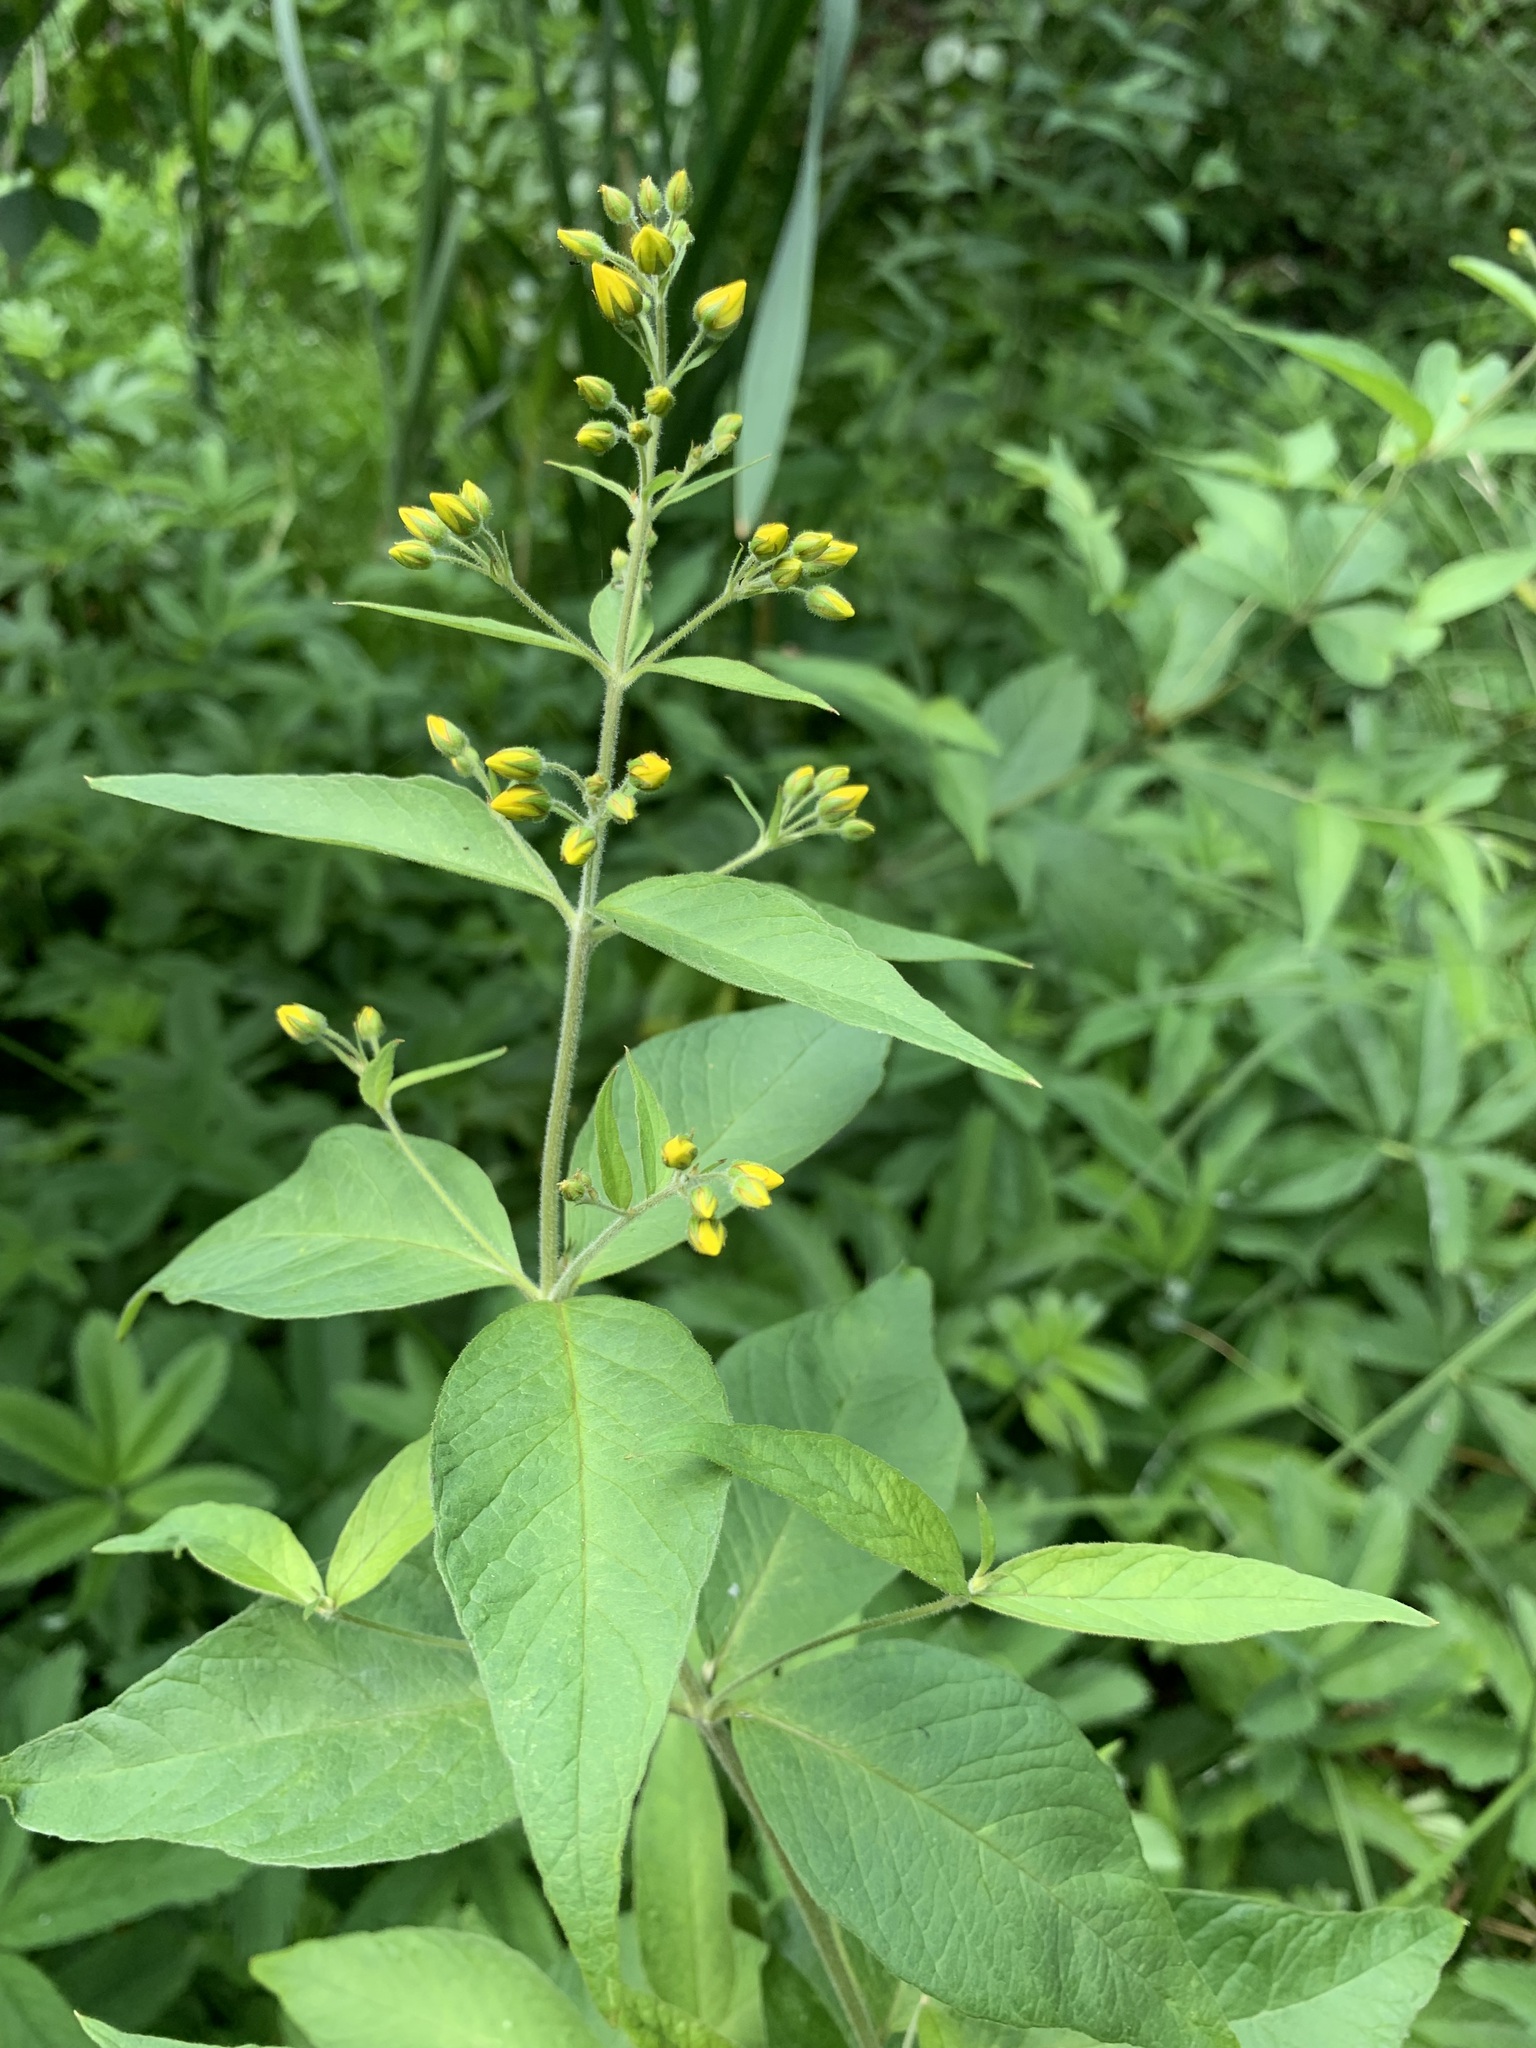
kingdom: Plantae
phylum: Tracheophyta
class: Magnoliopsida
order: Ericales
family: Primulaceae
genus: Lysimachia
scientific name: Lysimachia vulgaris
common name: Yellow loosestrife
